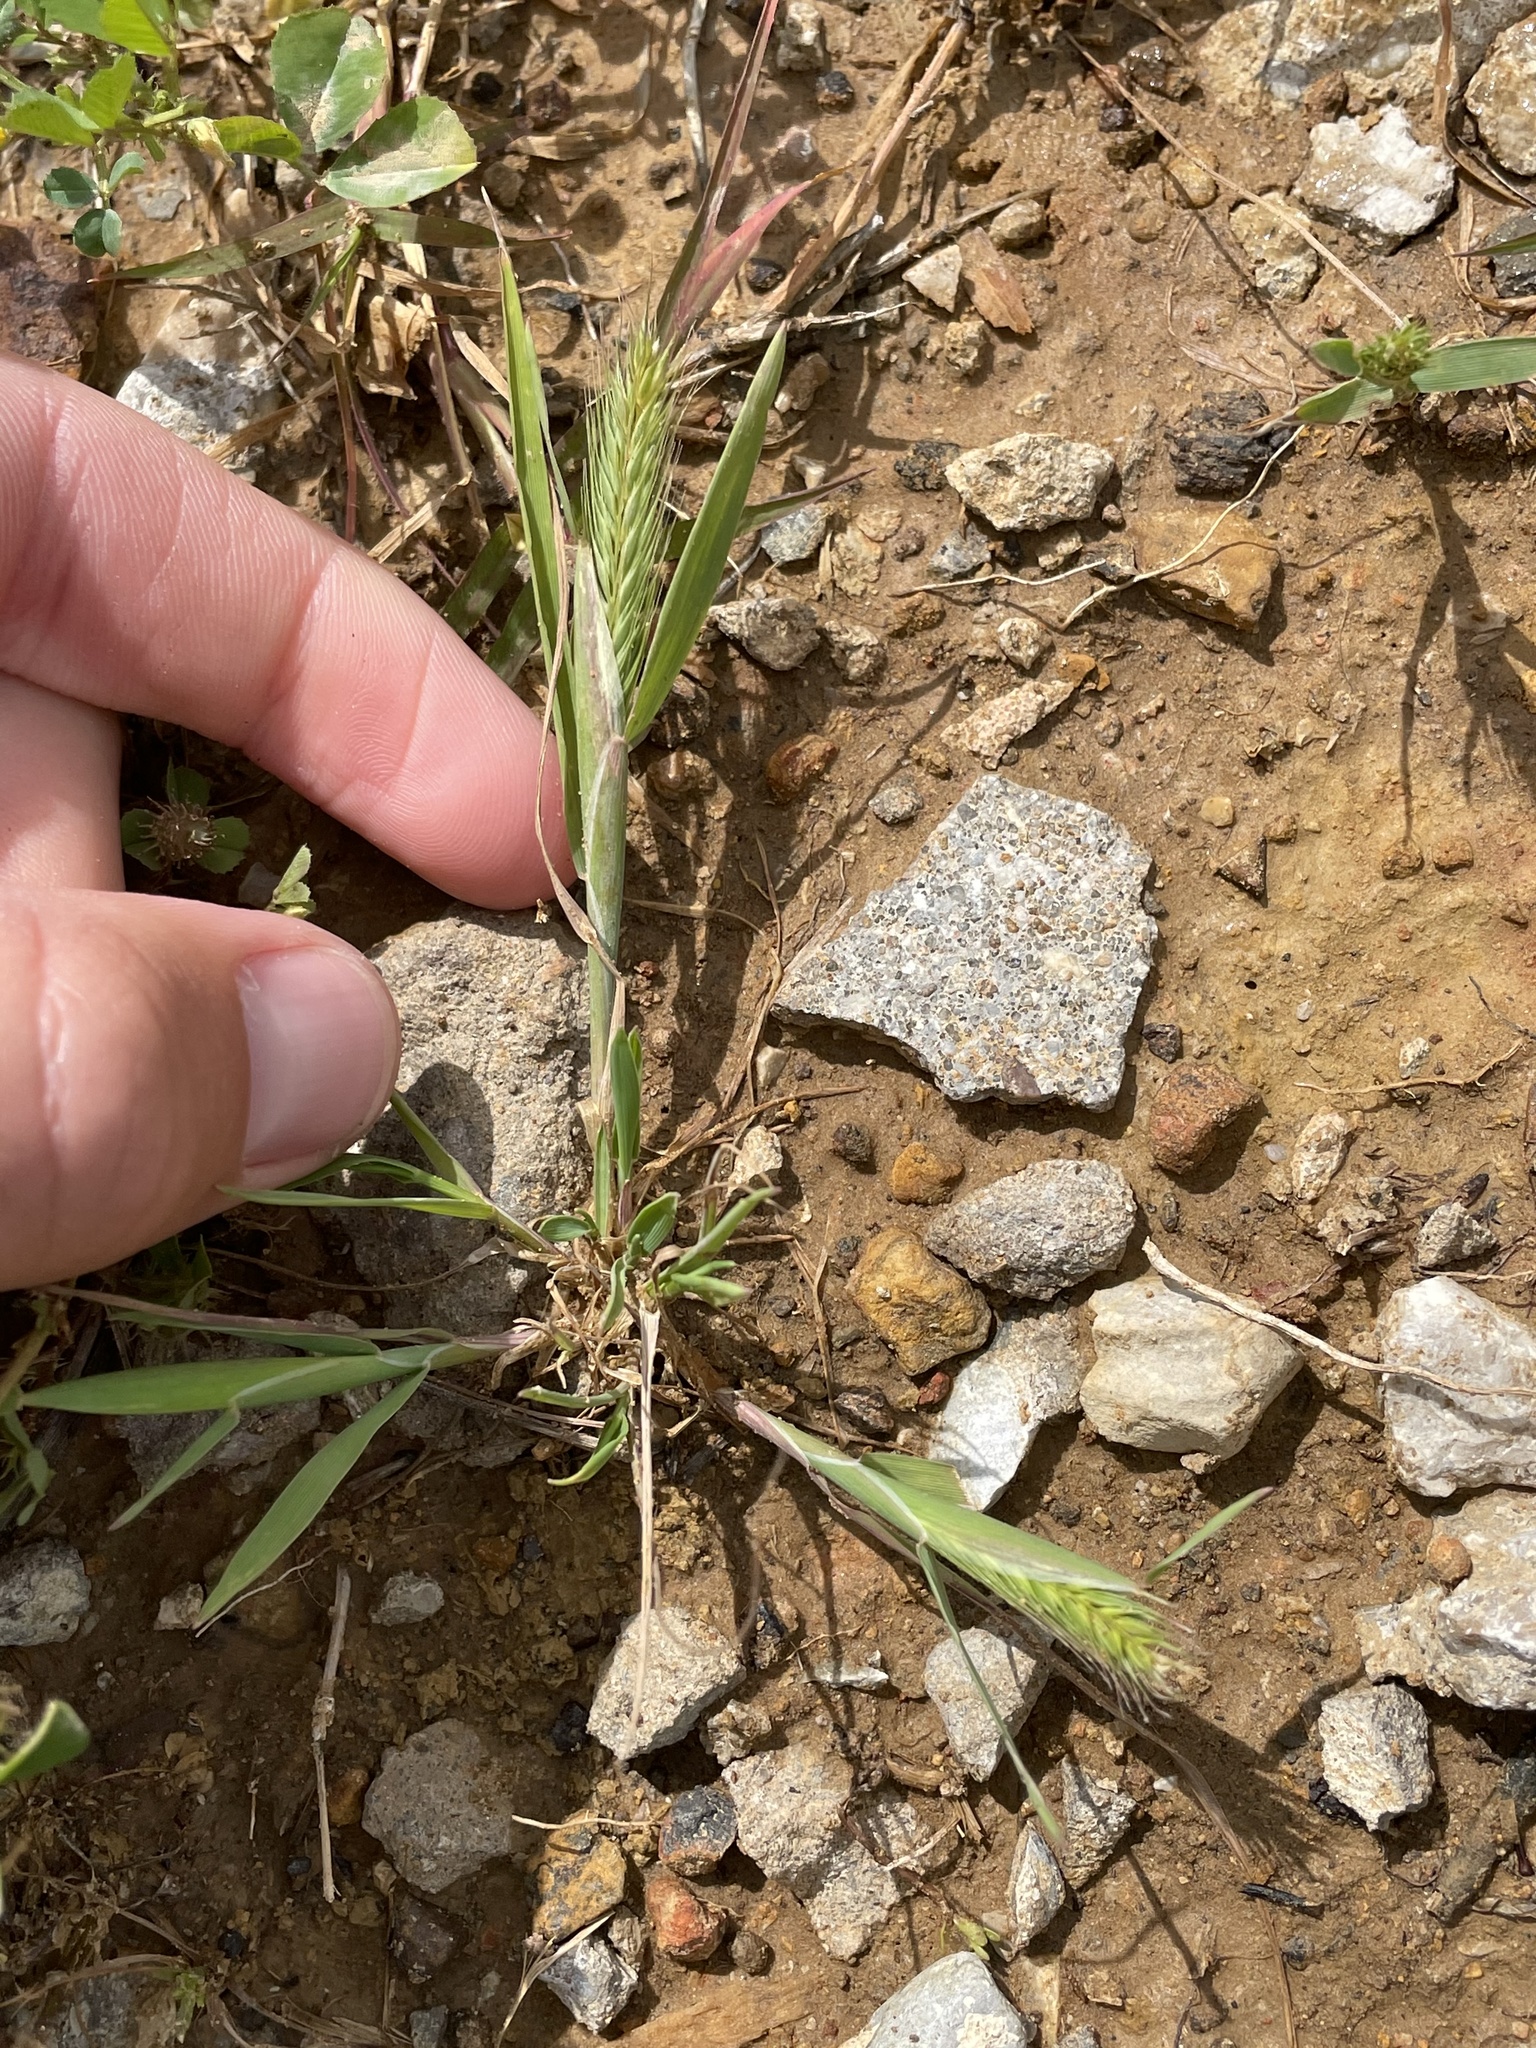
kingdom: Plantae
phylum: Tracheophyta
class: Liliopsida
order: Poales
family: Poaceae
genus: Hordeum
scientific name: Hordeum pusillum
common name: Little barley
